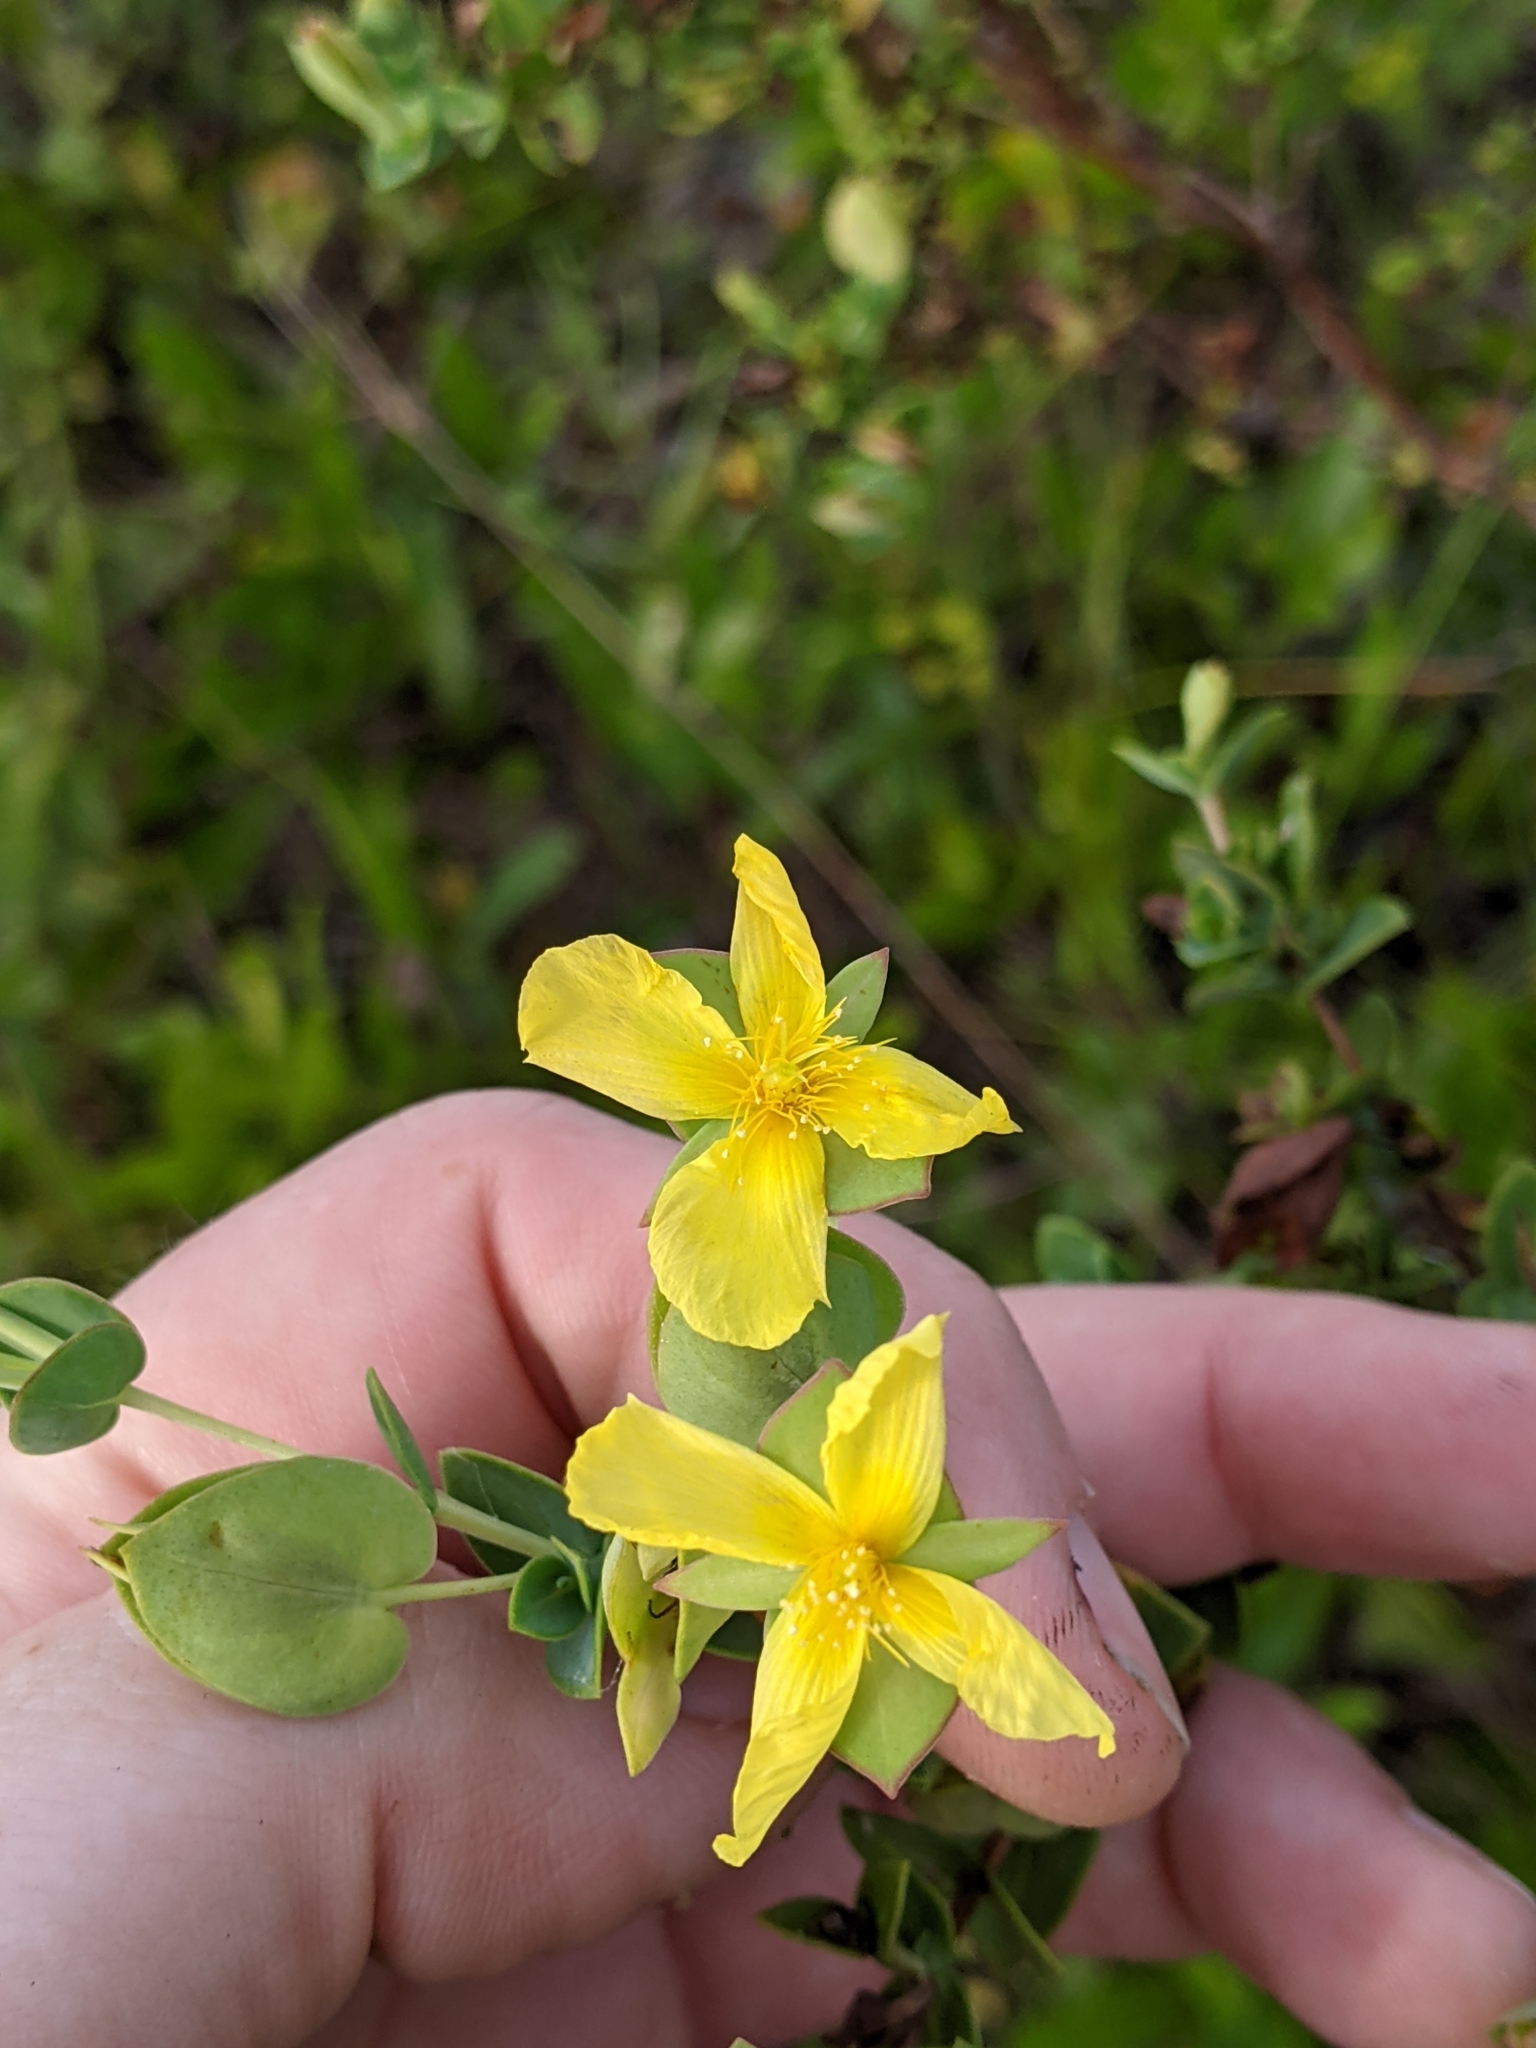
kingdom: Plantae
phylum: Tracheophyta
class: Magnoliopsida
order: Malpighiales
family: Hypericaceae
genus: Hypericum
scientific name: Hypericum tetrapetalum
